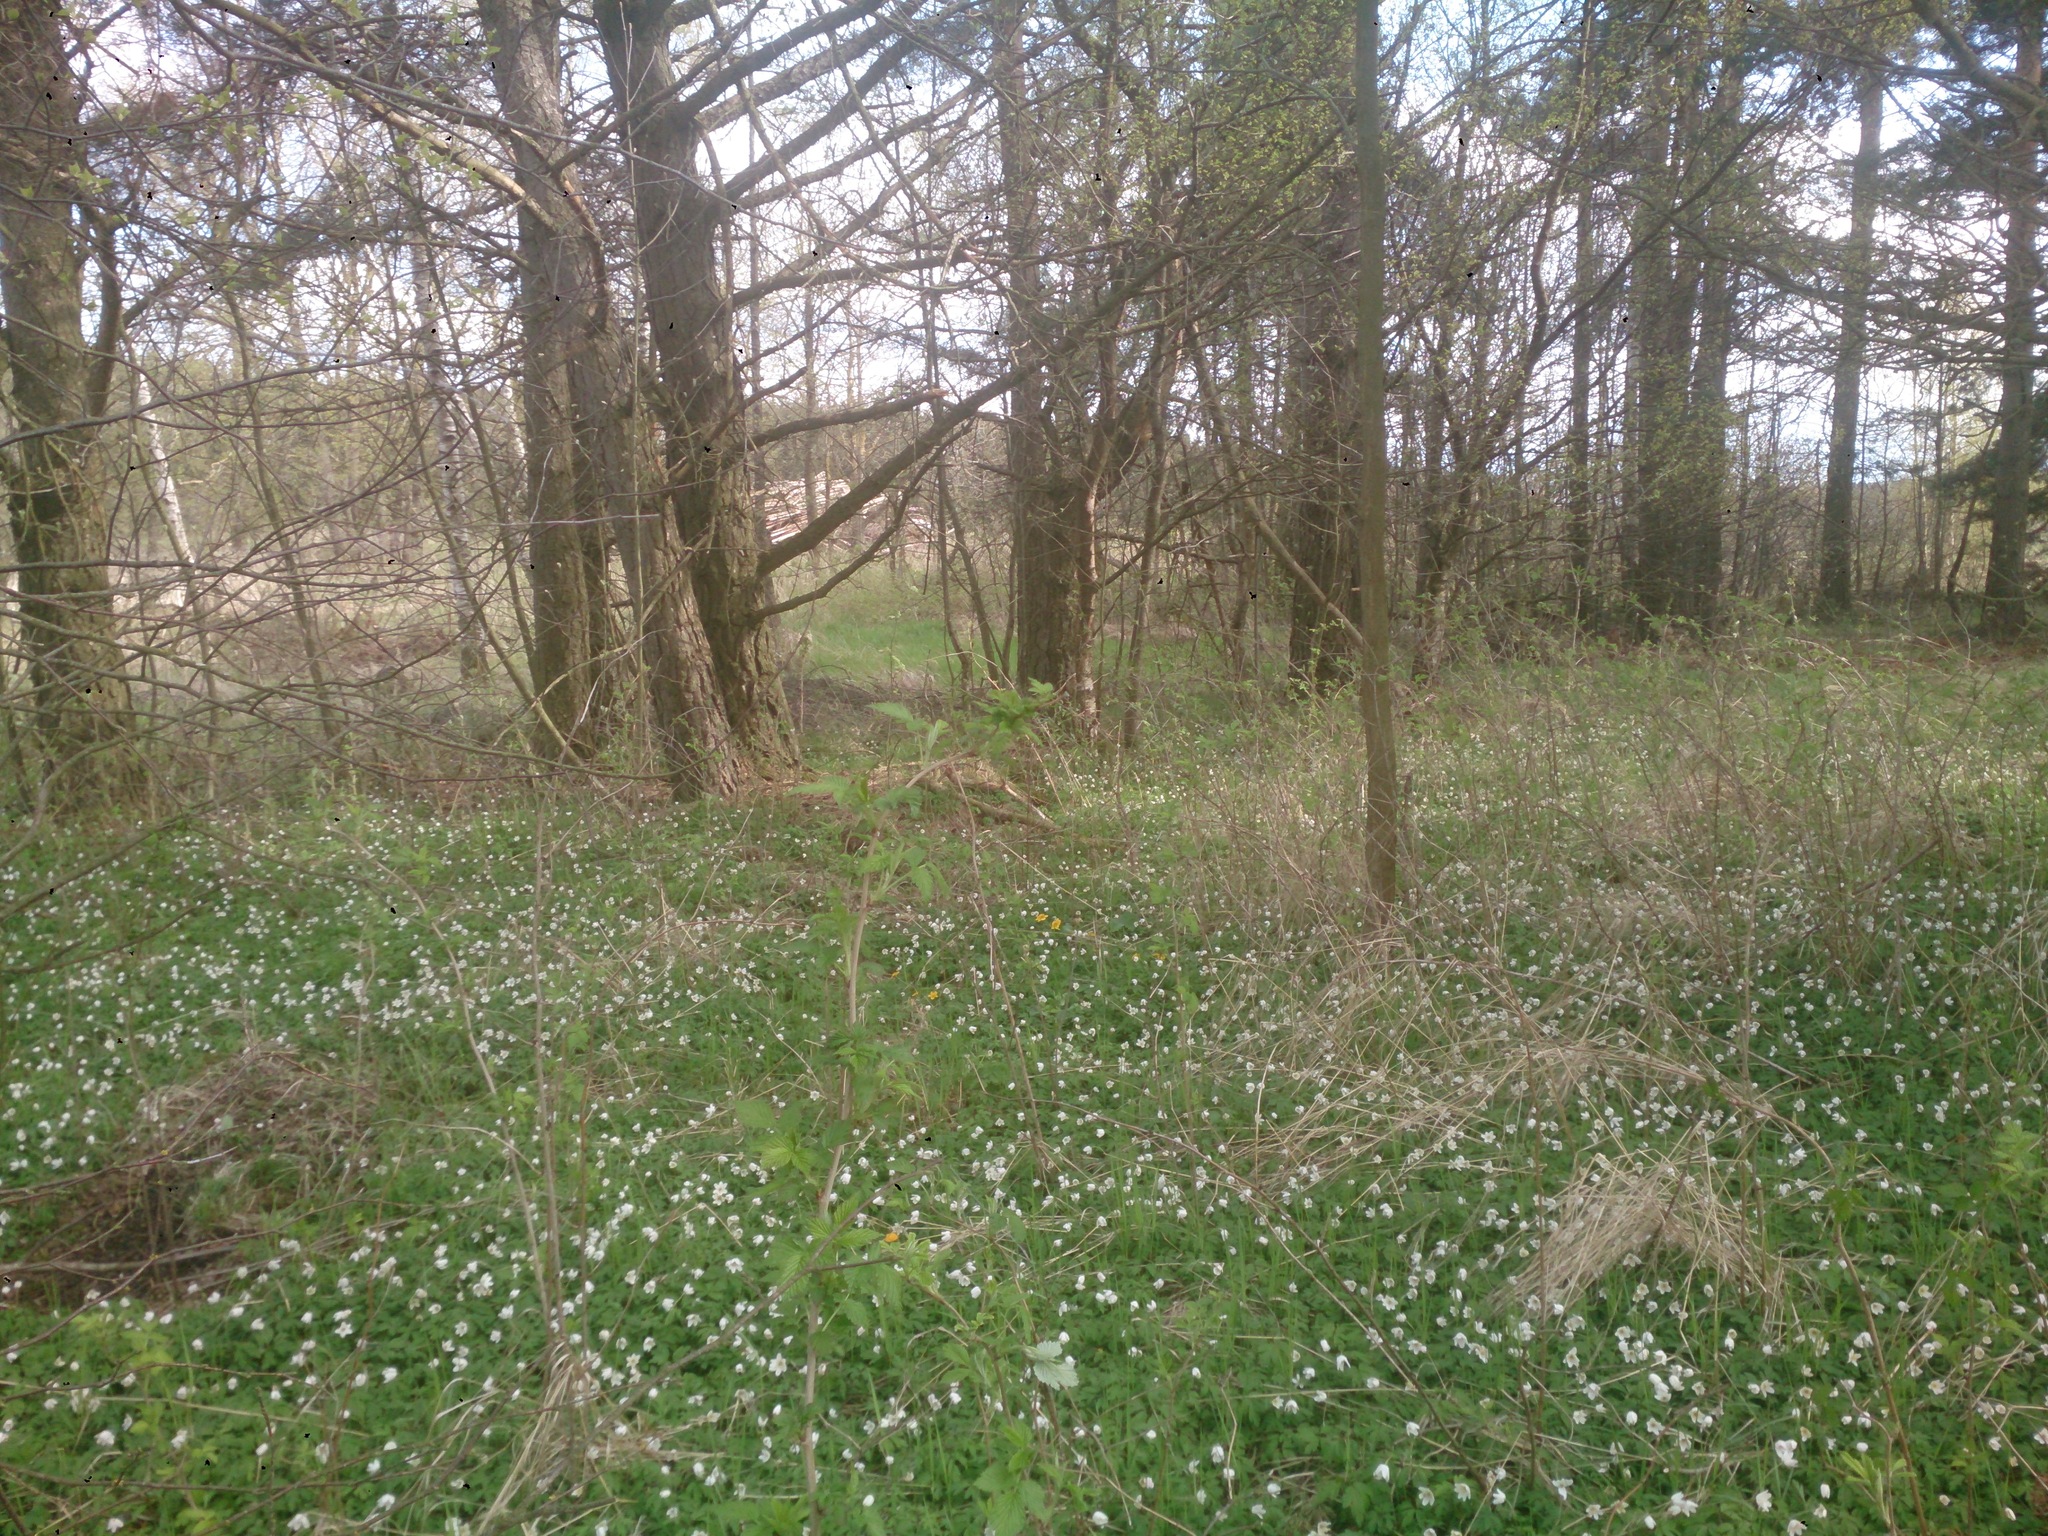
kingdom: Plantae
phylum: Tracheophyta
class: Magnoliopsida
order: Ranunculales
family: Ranunculaceae
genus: Anemone
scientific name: Anemone nemorosa
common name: Wood anemone
